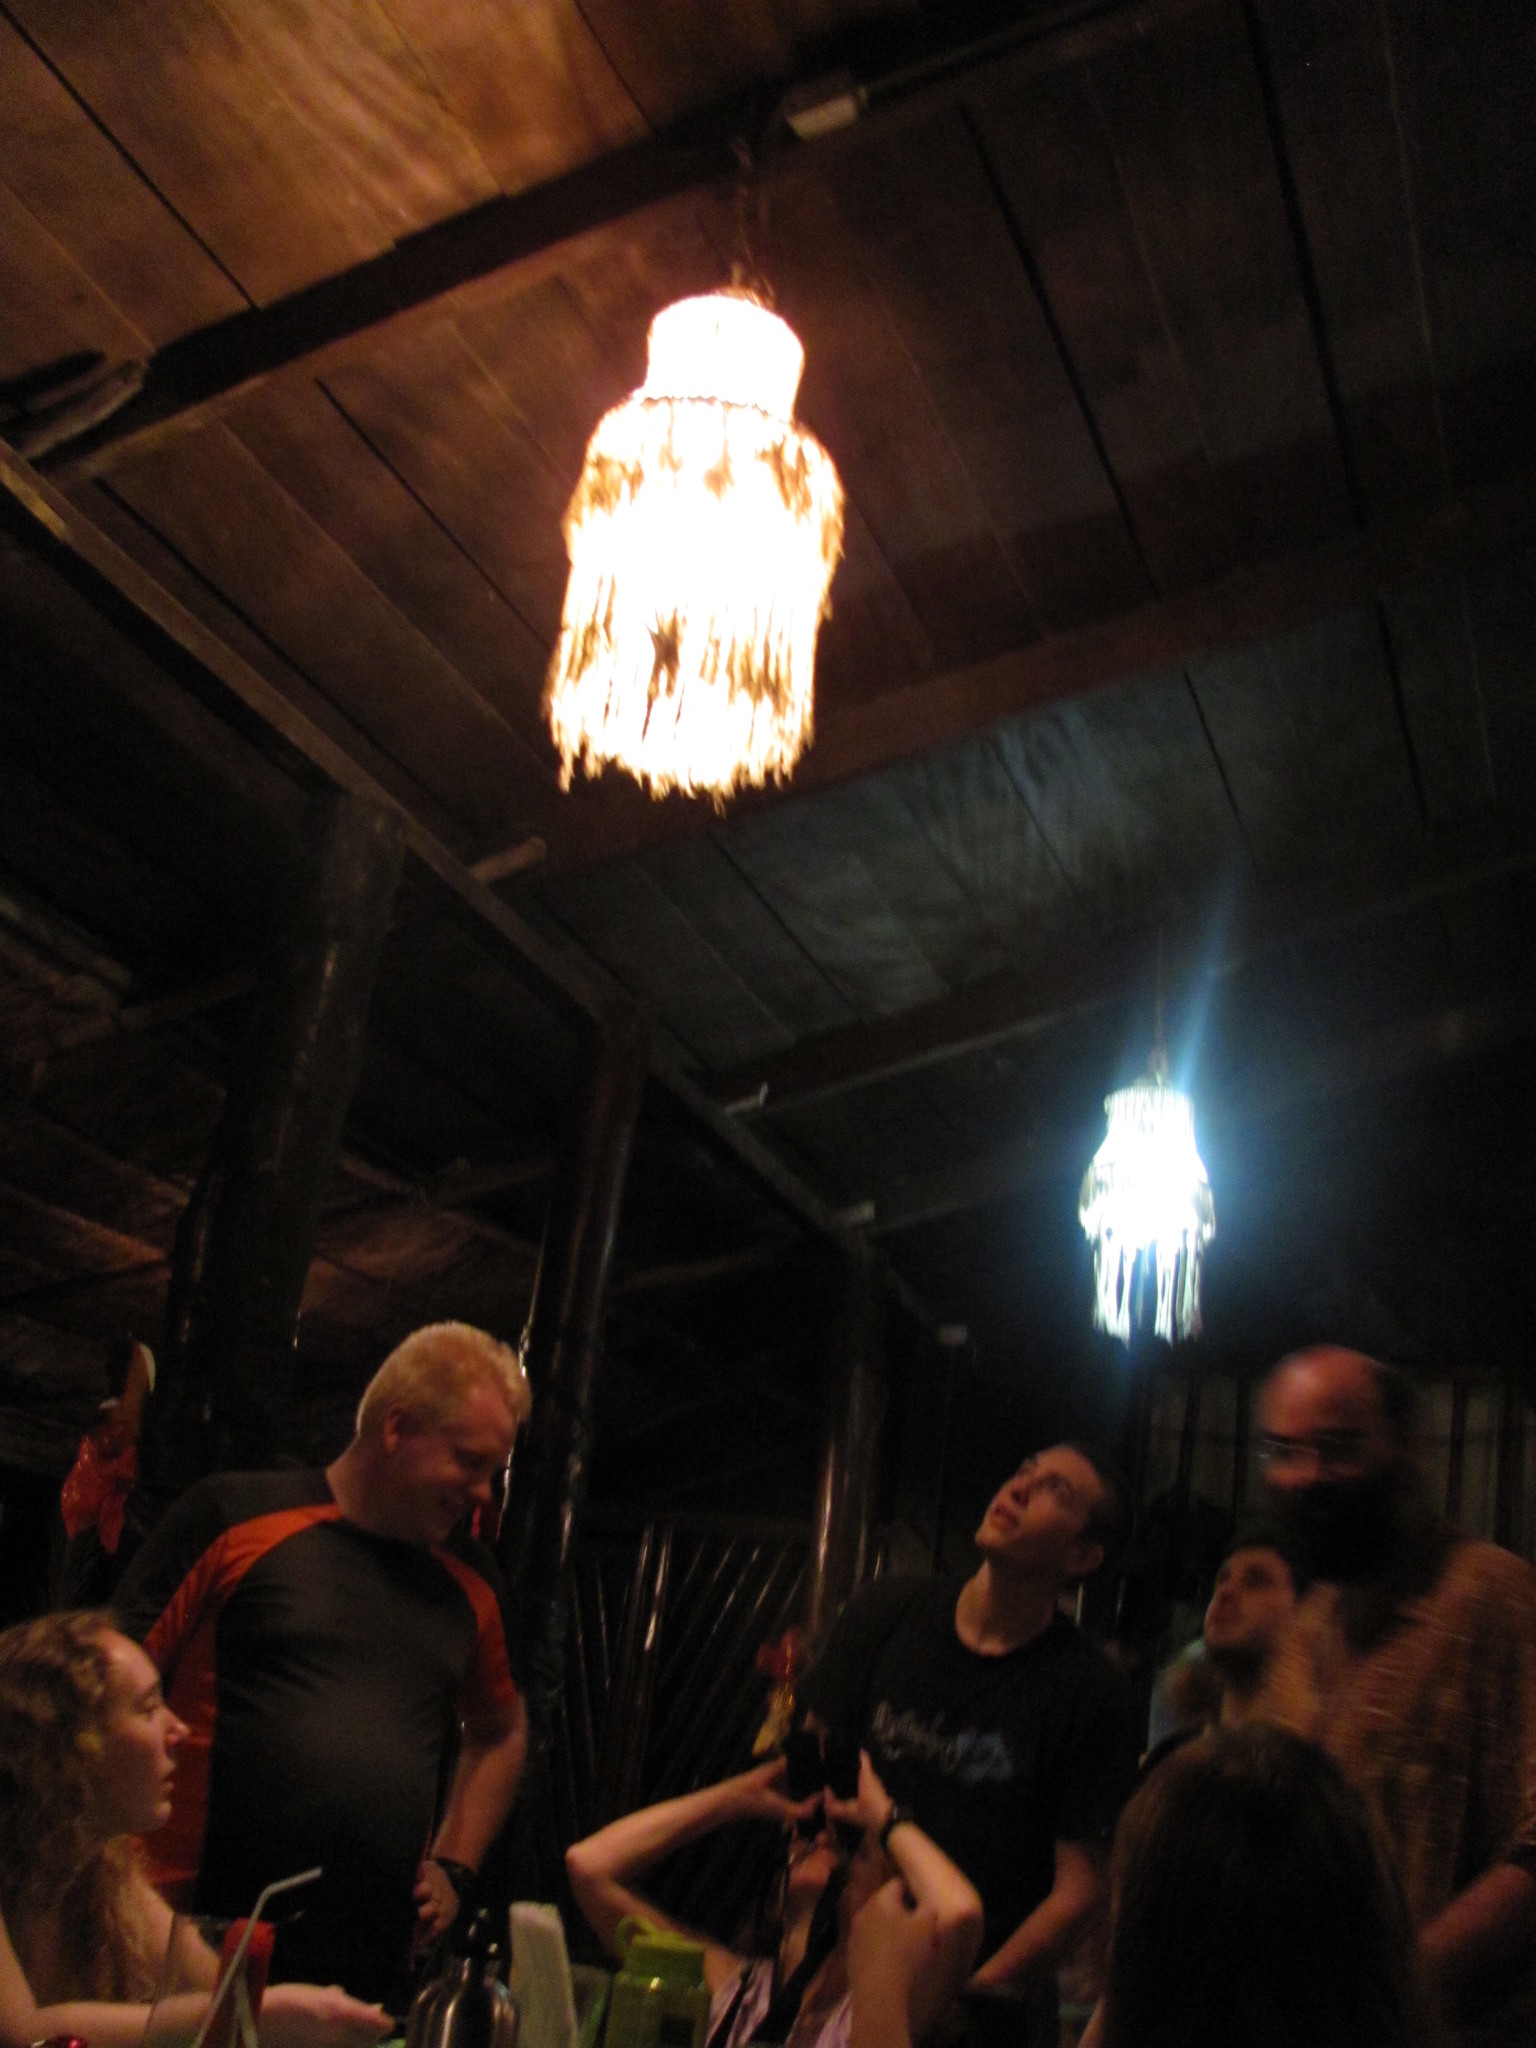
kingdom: Animalia
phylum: Chordata
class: Squamata
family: Gekkonidae
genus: Hemidactylus
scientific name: Hemidactylus frenatus
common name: Common house gecko
